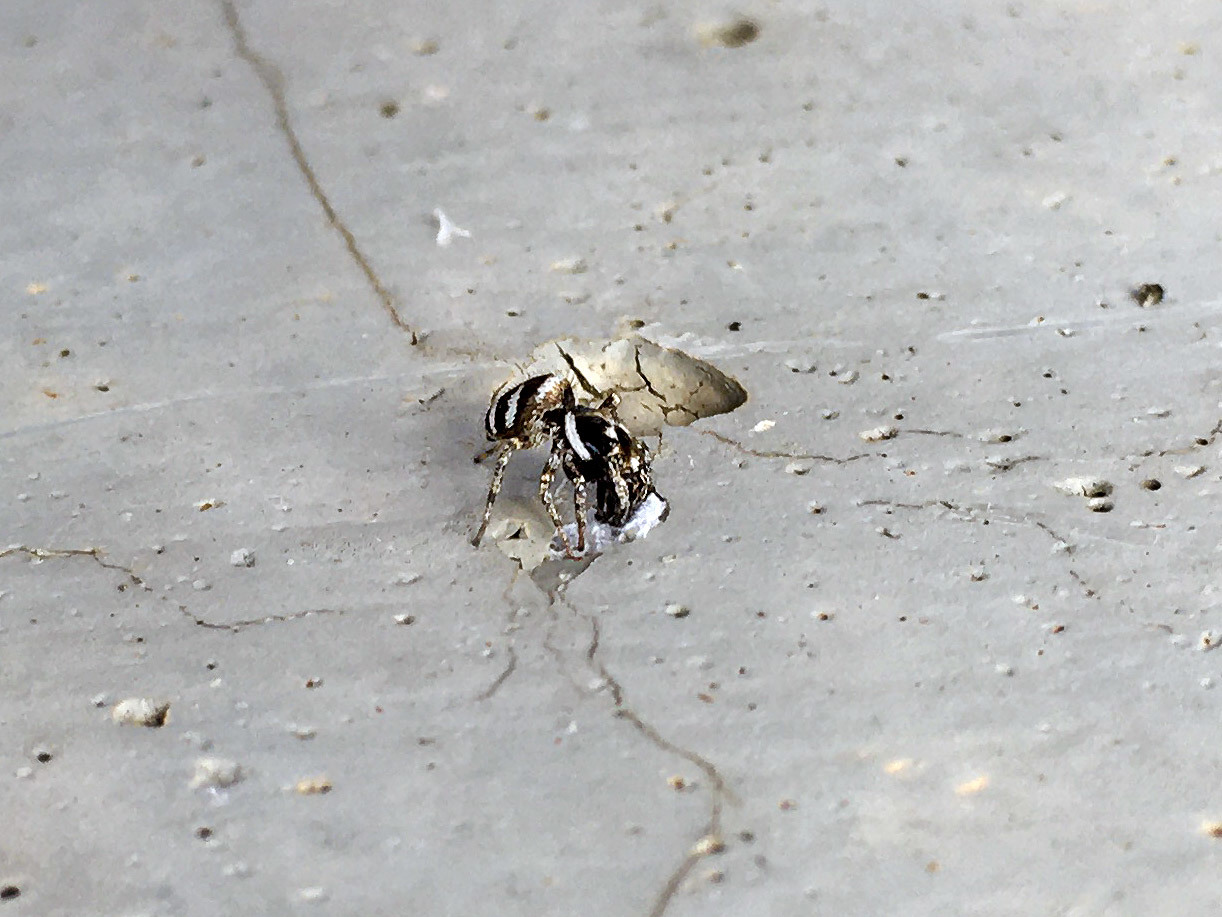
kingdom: Animalia
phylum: Arthropoda
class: Arachnida
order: Araneae
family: Salticidae
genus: Salticus
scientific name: Salticus scenicus
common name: Zebra jumper
